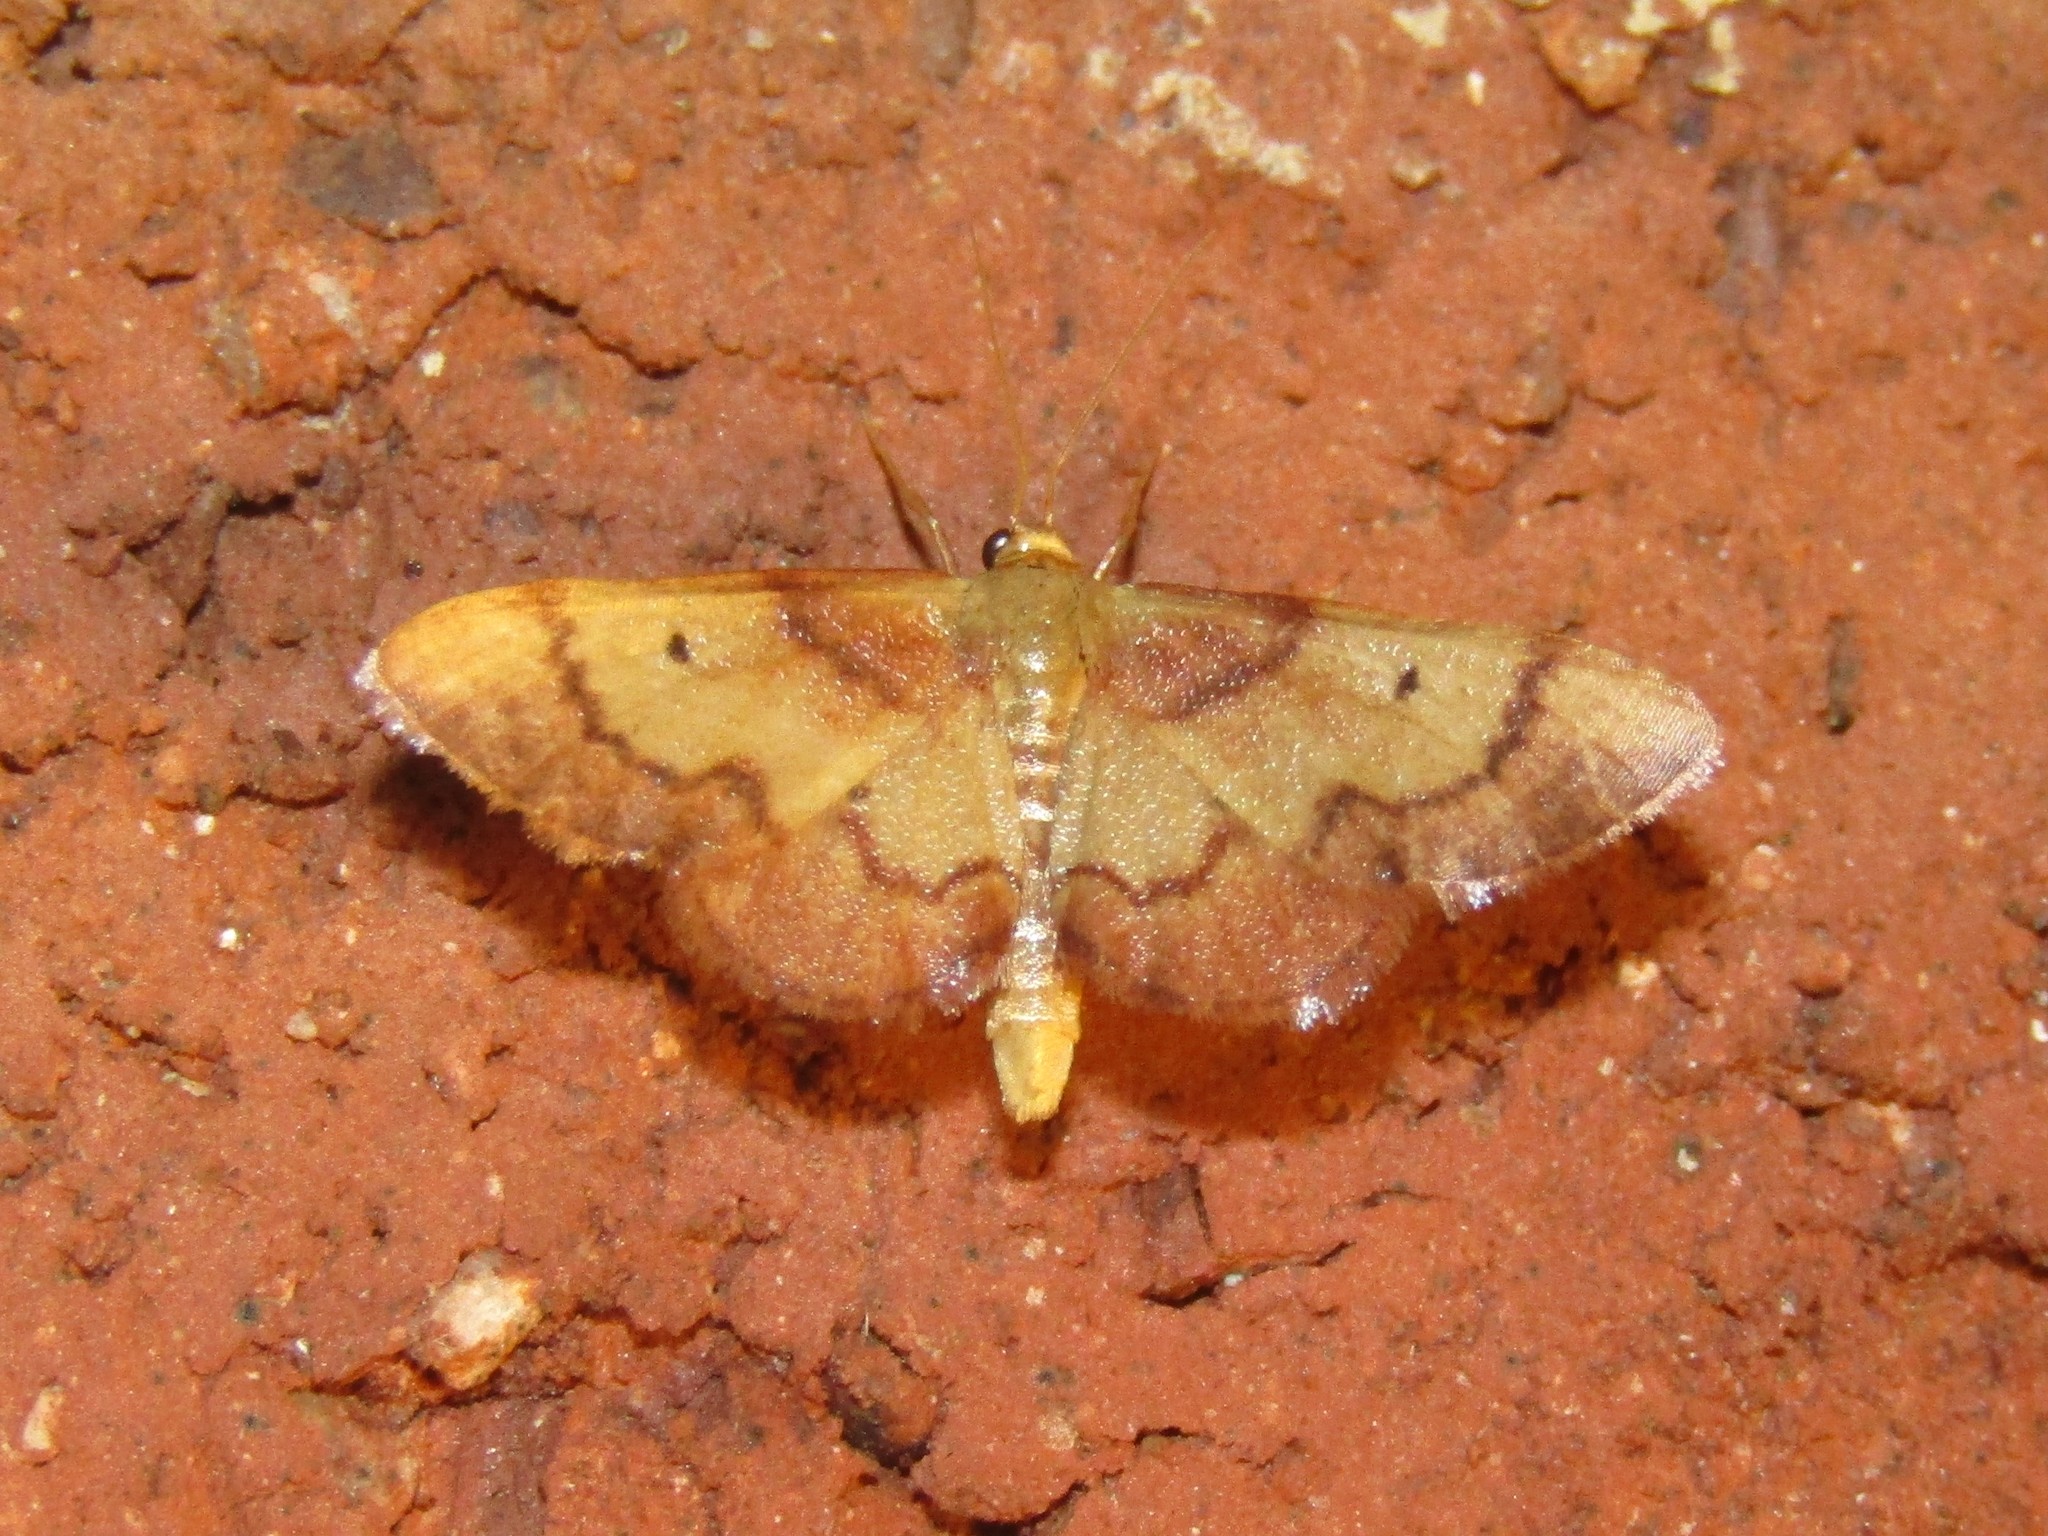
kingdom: Animalia
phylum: Arthropoda
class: Insecta
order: Lepidoptera
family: Geometridae
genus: Idaea
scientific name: Idaea demissaria
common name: Red-bordered wave
